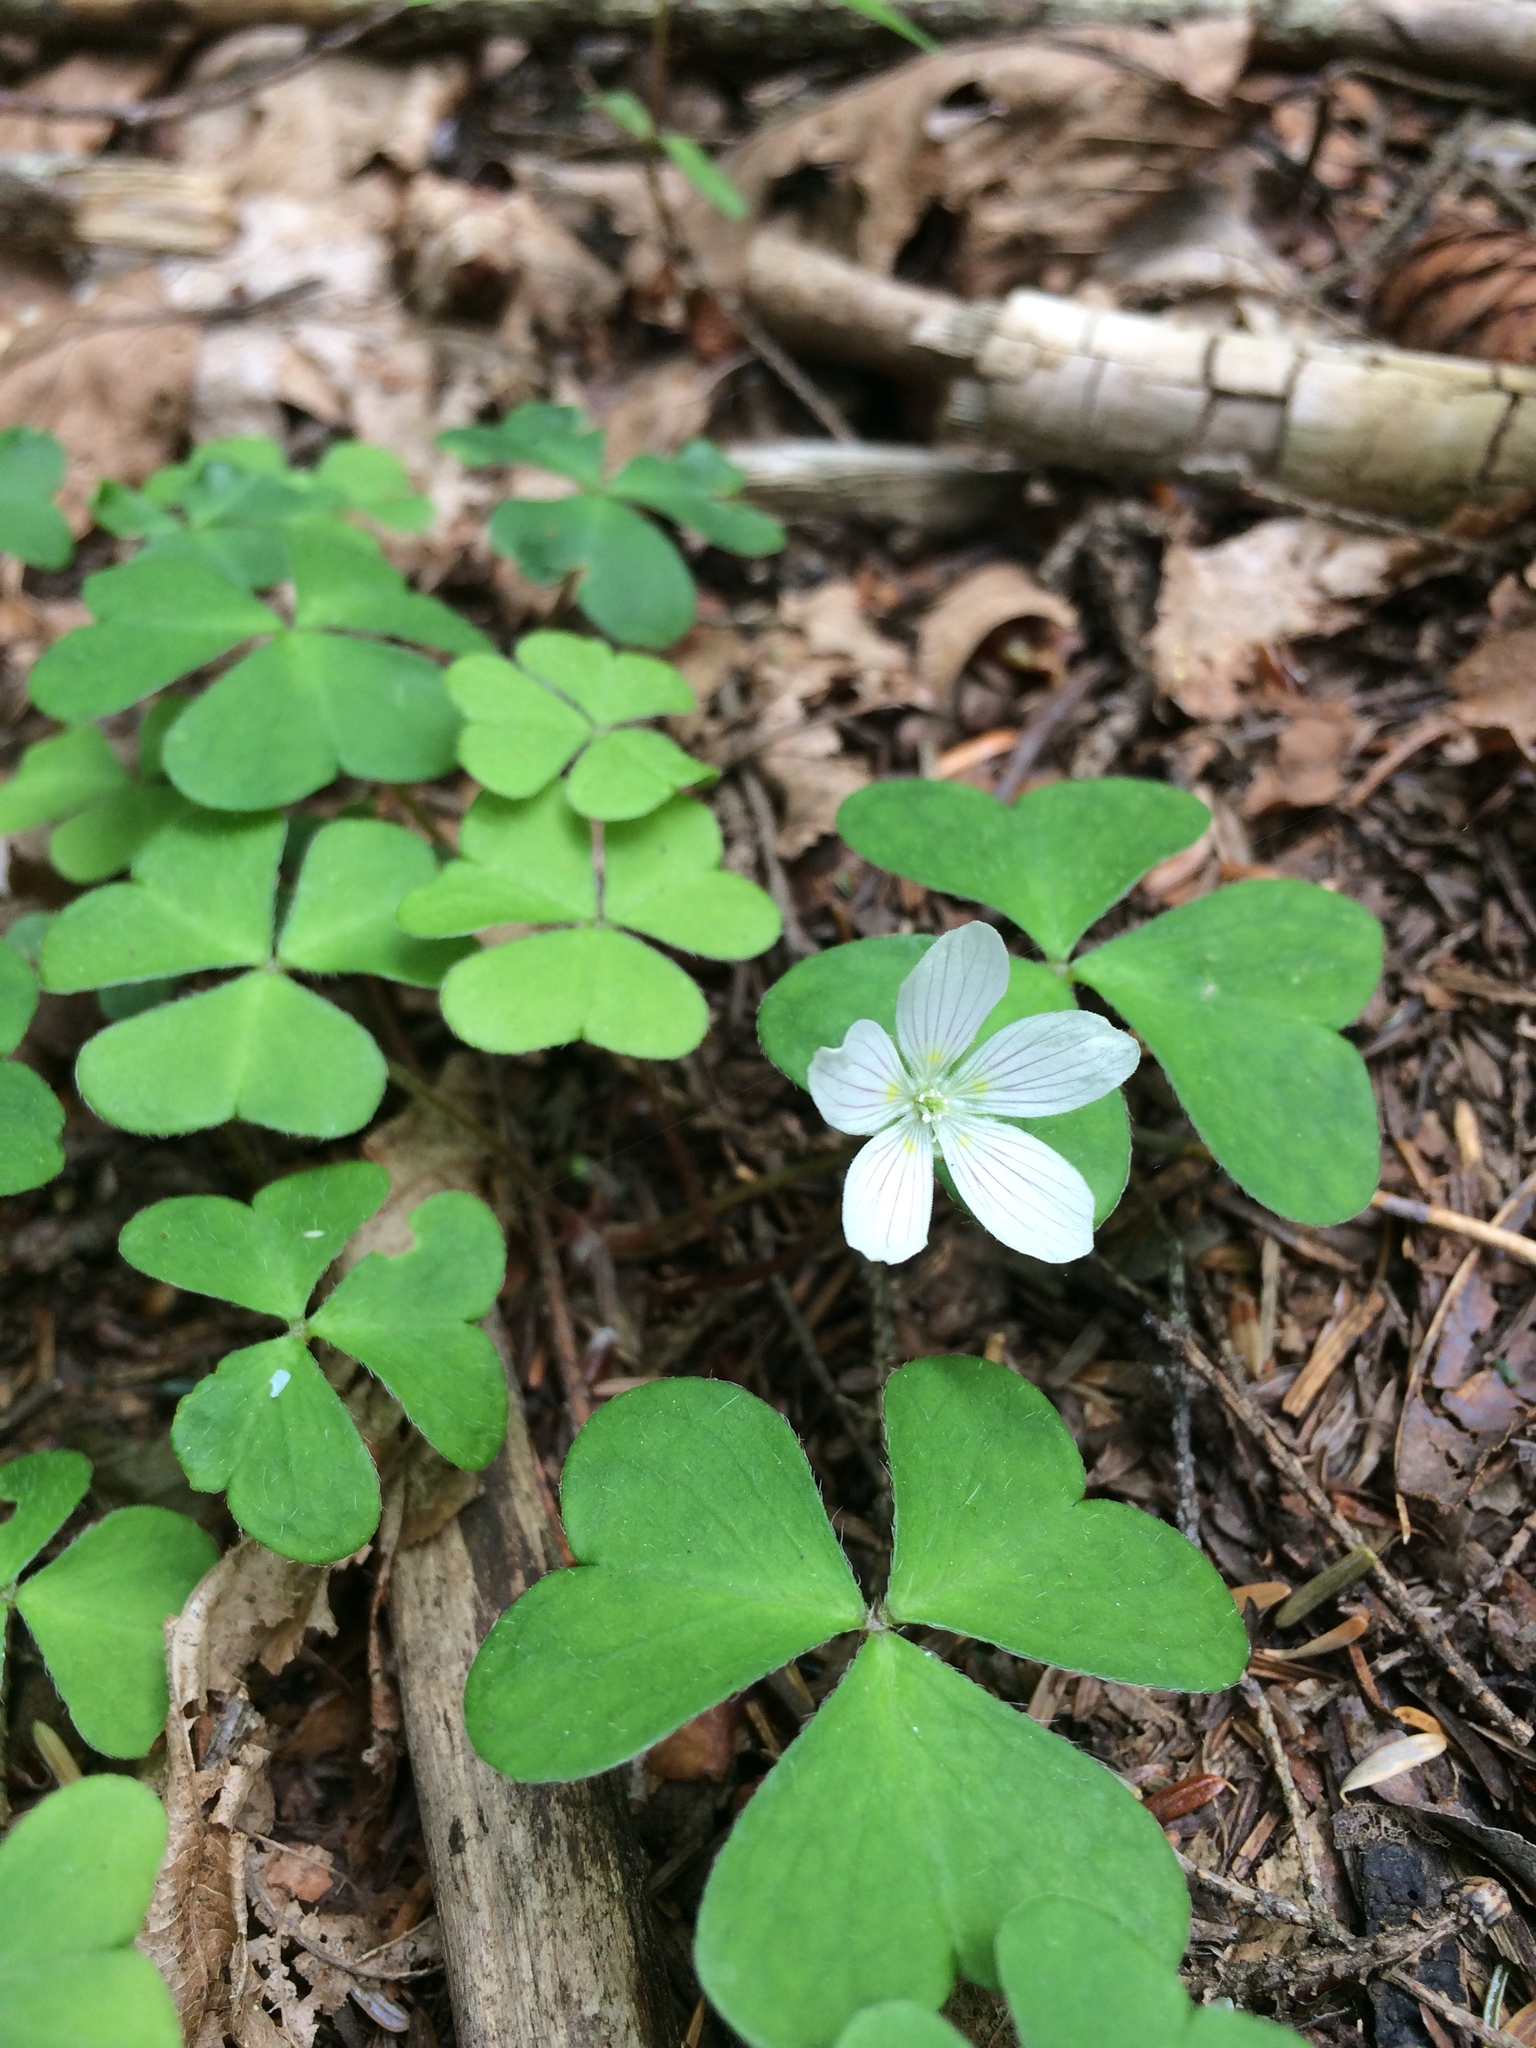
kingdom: Plantae
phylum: Tracheophyta
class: Magnoliopsida
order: Oxalidales
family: Oxalidaceae
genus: Oxalis
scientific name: Oxalis montana
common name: American wood-sorrel
